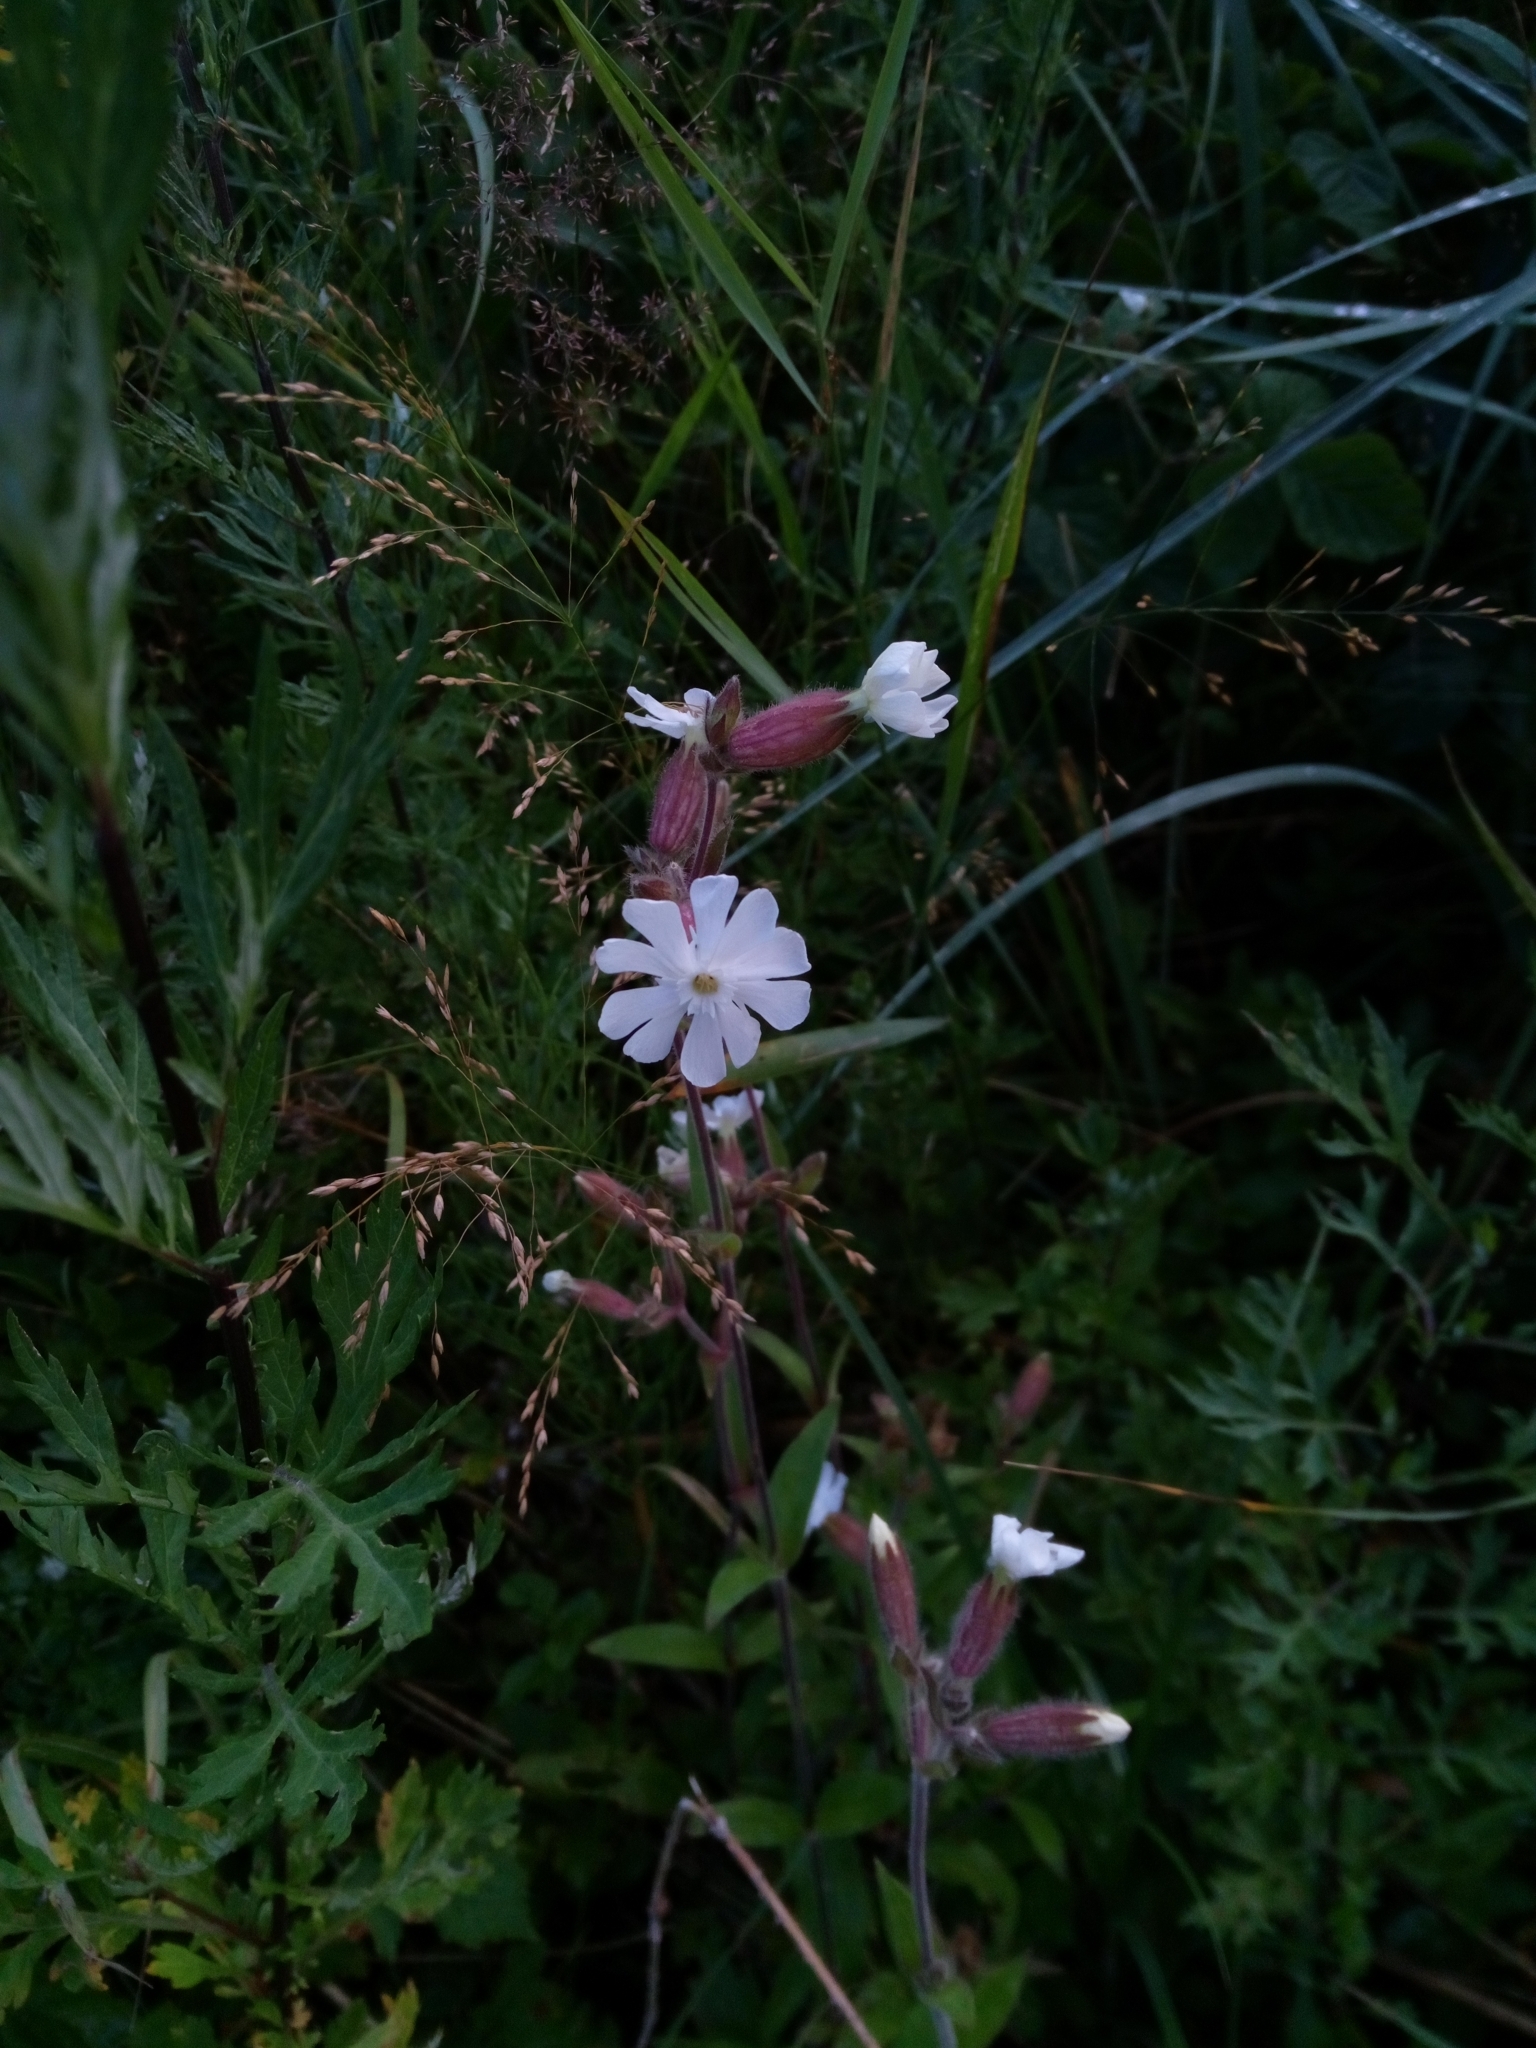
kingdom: Plantae
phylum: Tracheophyta
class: Magnoliopsida
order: Caryophyllales
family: Caryophyllaceae
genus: Silene
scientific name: Silene latifolia
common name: White campion
